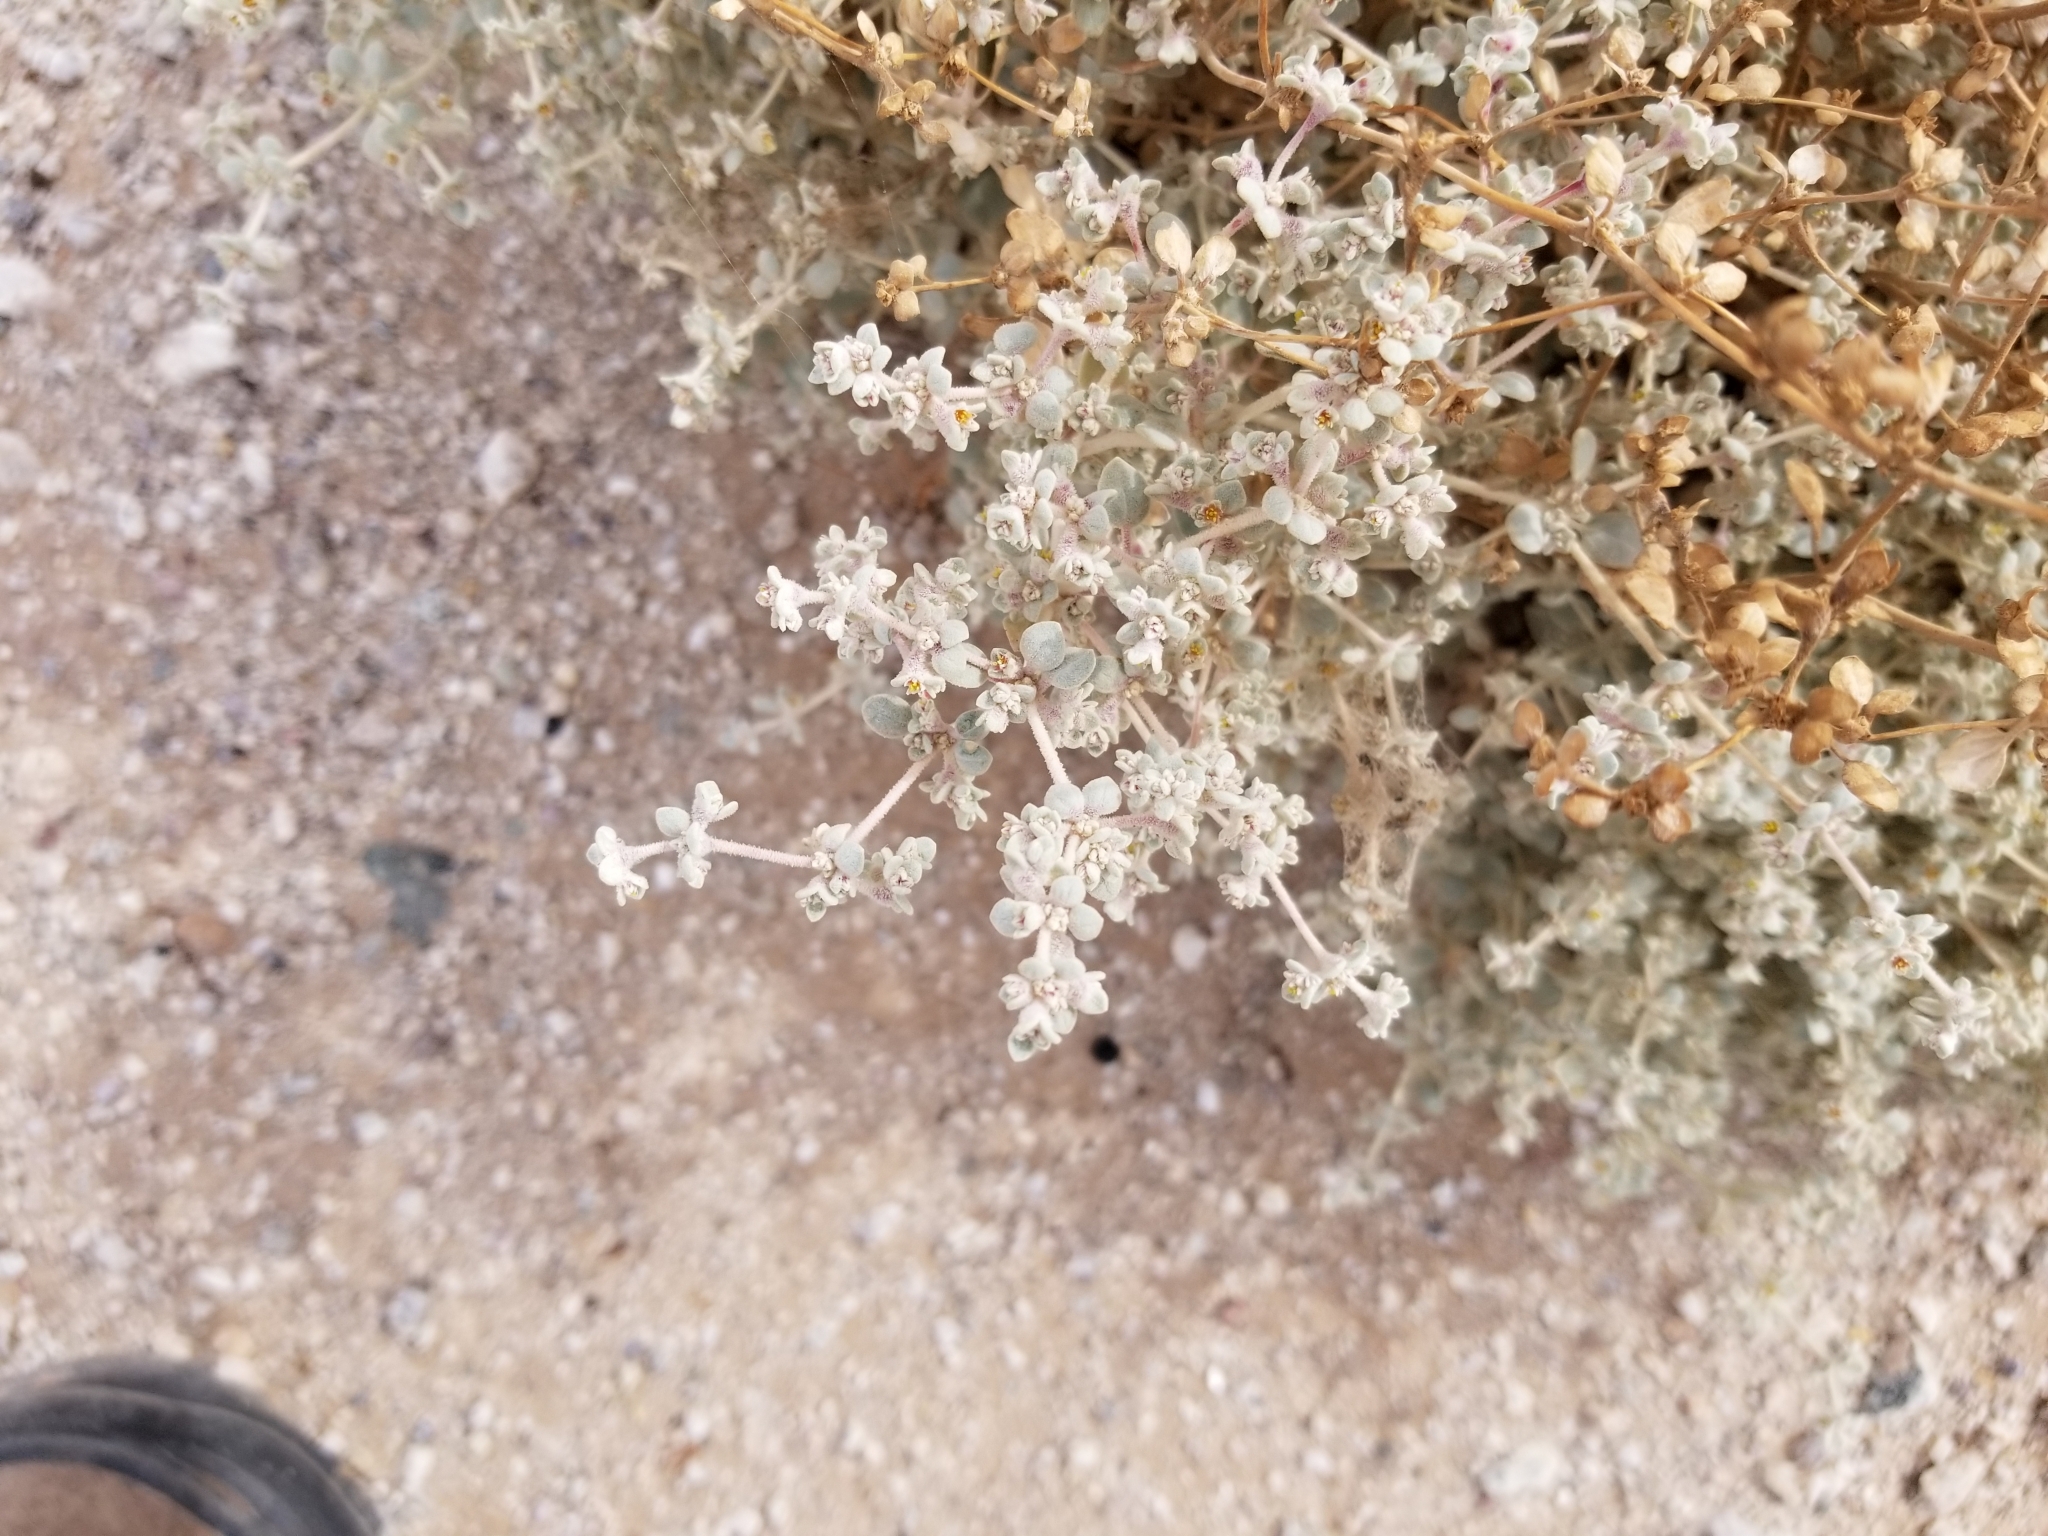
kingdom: Plantae
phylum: Tracheophyta
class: Magnoliopsida
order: Caryophyllales
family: Amaranthaceae
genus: Tidestromia
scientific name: Tidestromia suffruticosa
